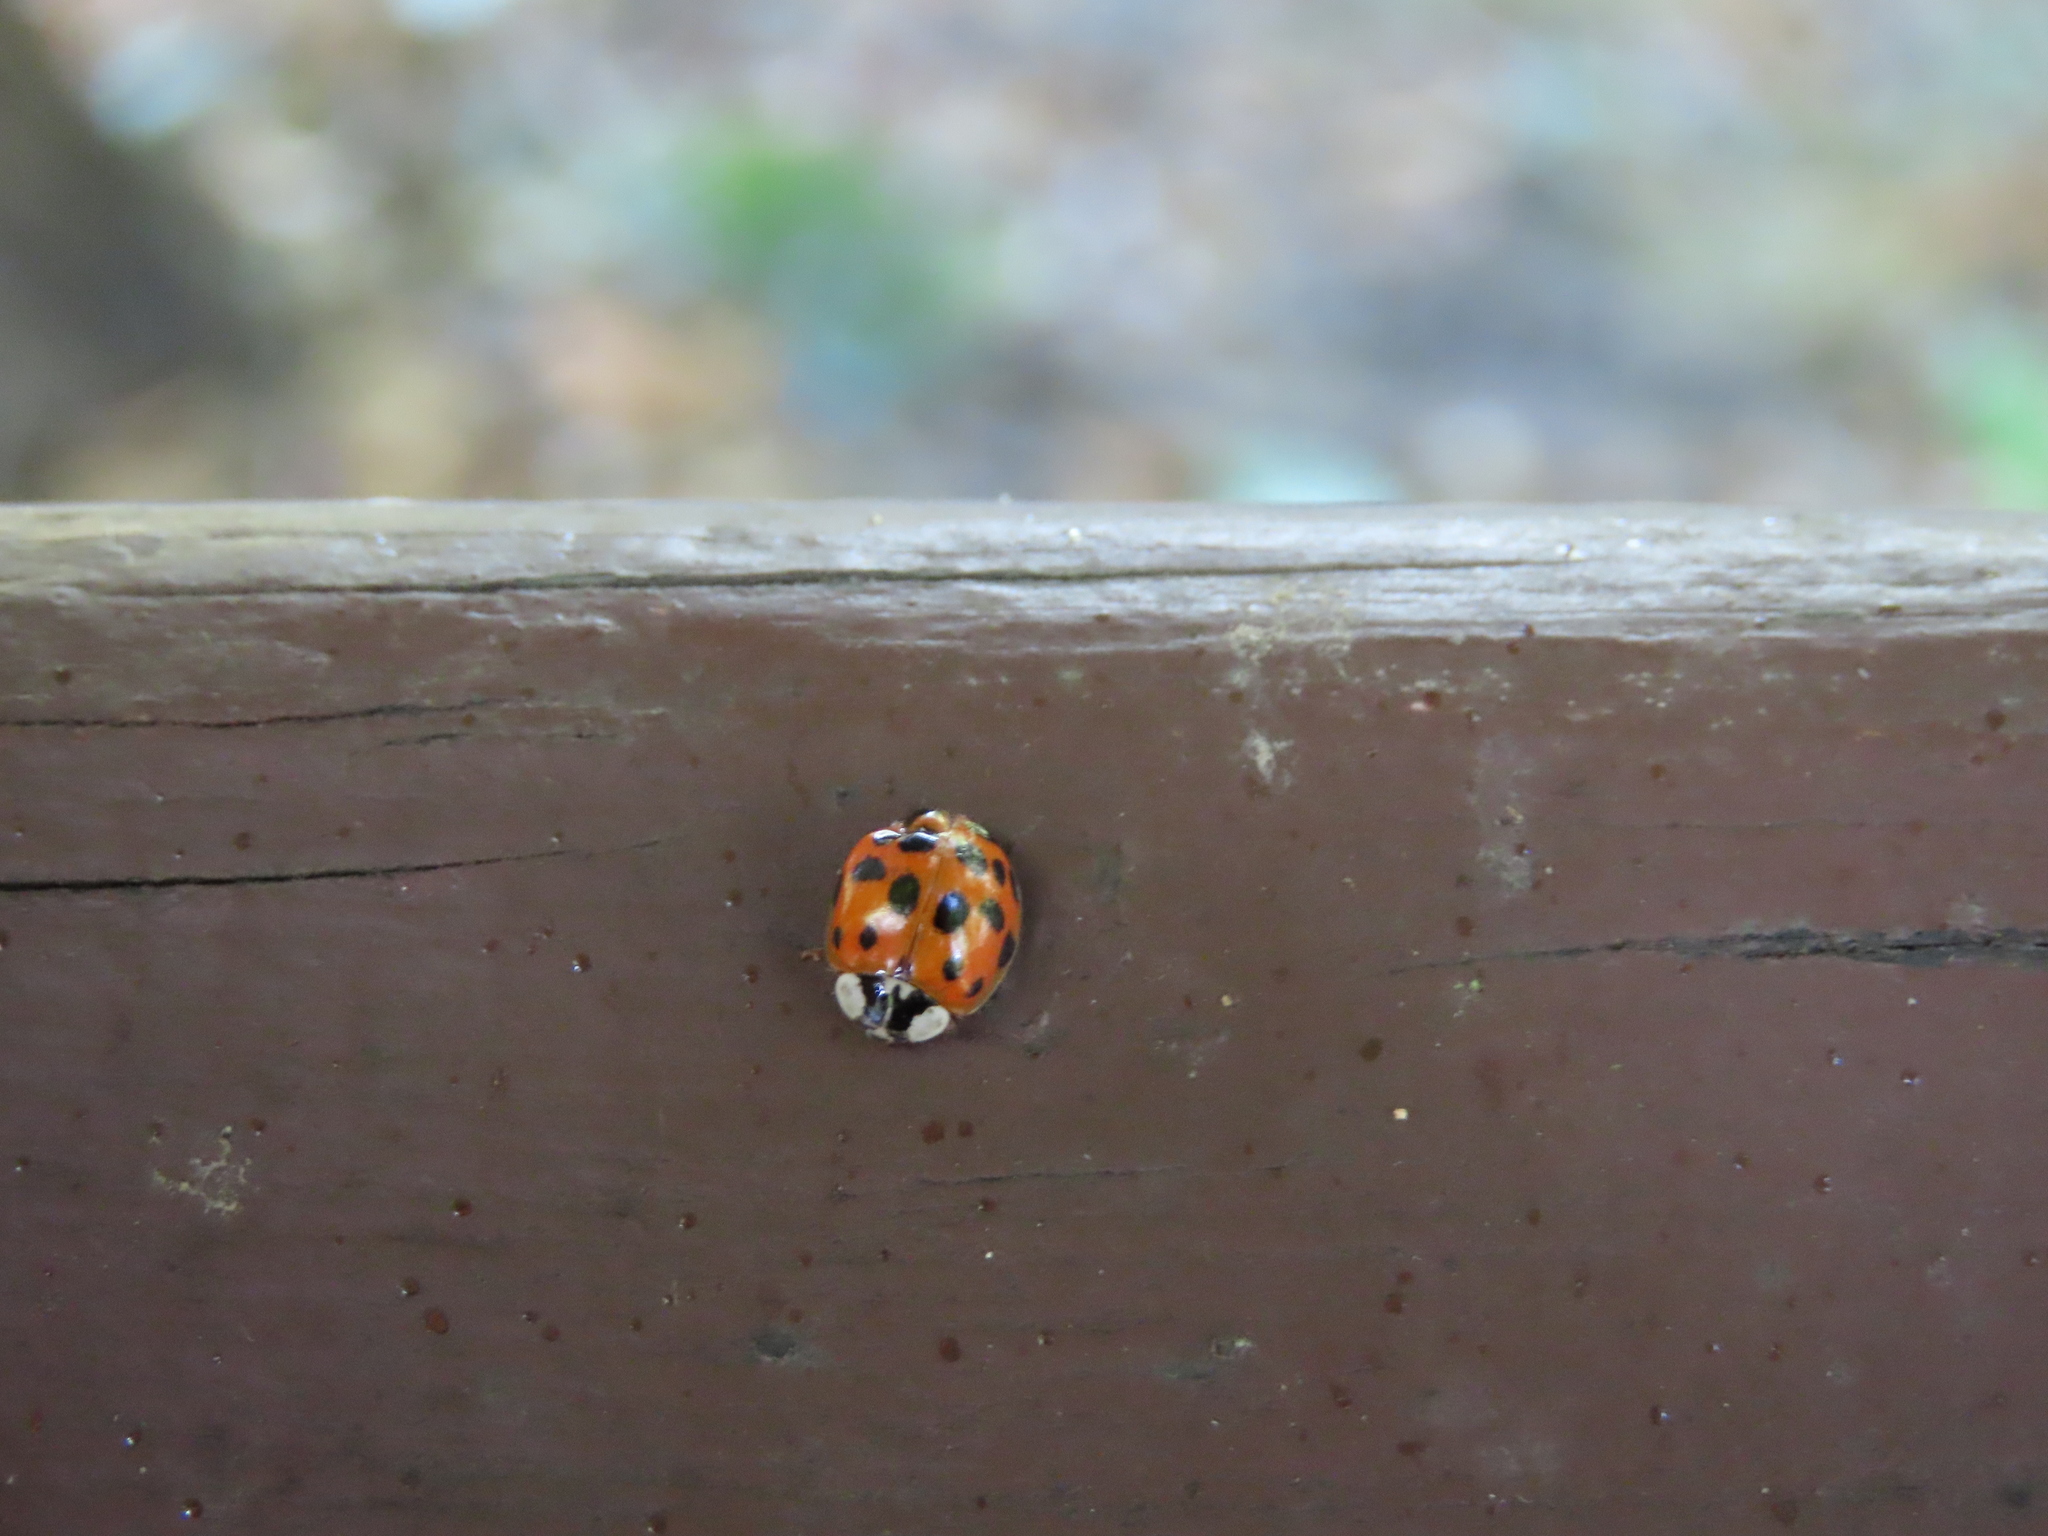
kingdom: Animalia
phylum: Arthropoda
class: Insecta
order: Coleoptera
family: Coccinellidae
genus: Harmonia
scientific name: Harmonia axyridis
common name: Harlequin ladybird
